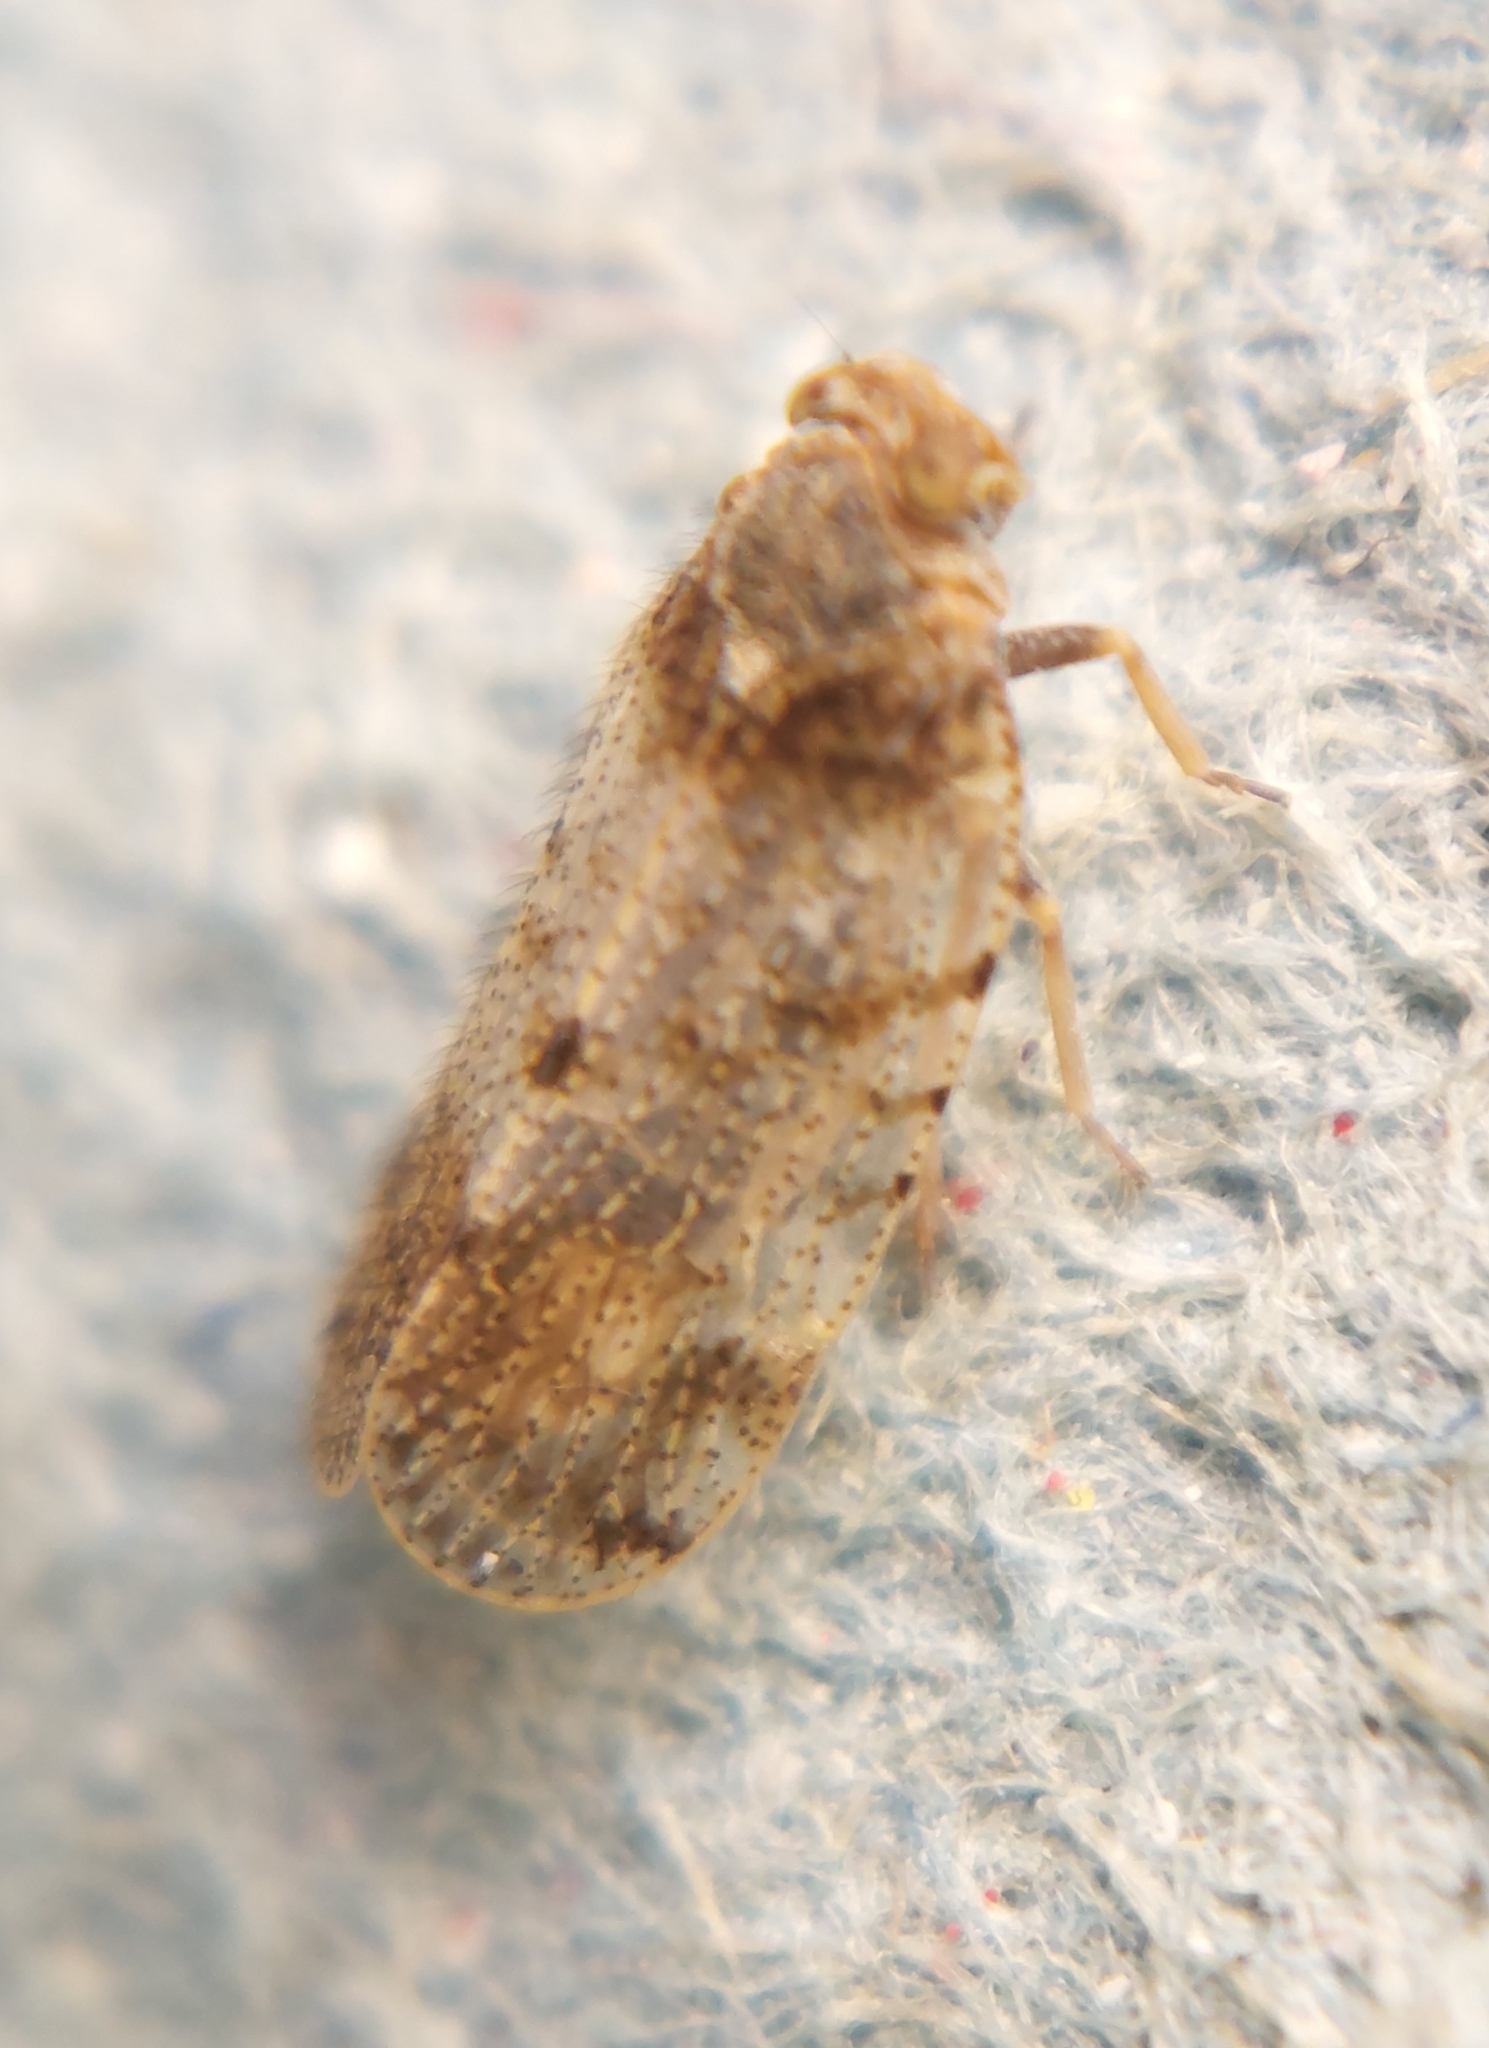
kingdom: Animalia
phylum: Arthropoda
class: Insecta
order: Hemiptera
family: Cixiidae
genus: Tachycixius
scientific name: Tachycixius pilosus
